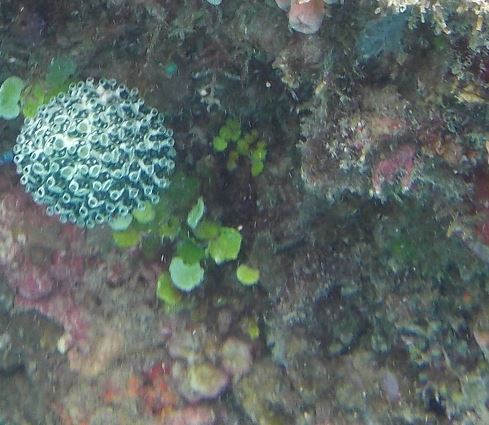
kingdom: Animalia
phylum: Chordata
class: Ascidiacea
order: Aplousobranchia
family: Clavelinidae
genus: Nephtheis
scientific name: Nephtheis fascicularis
